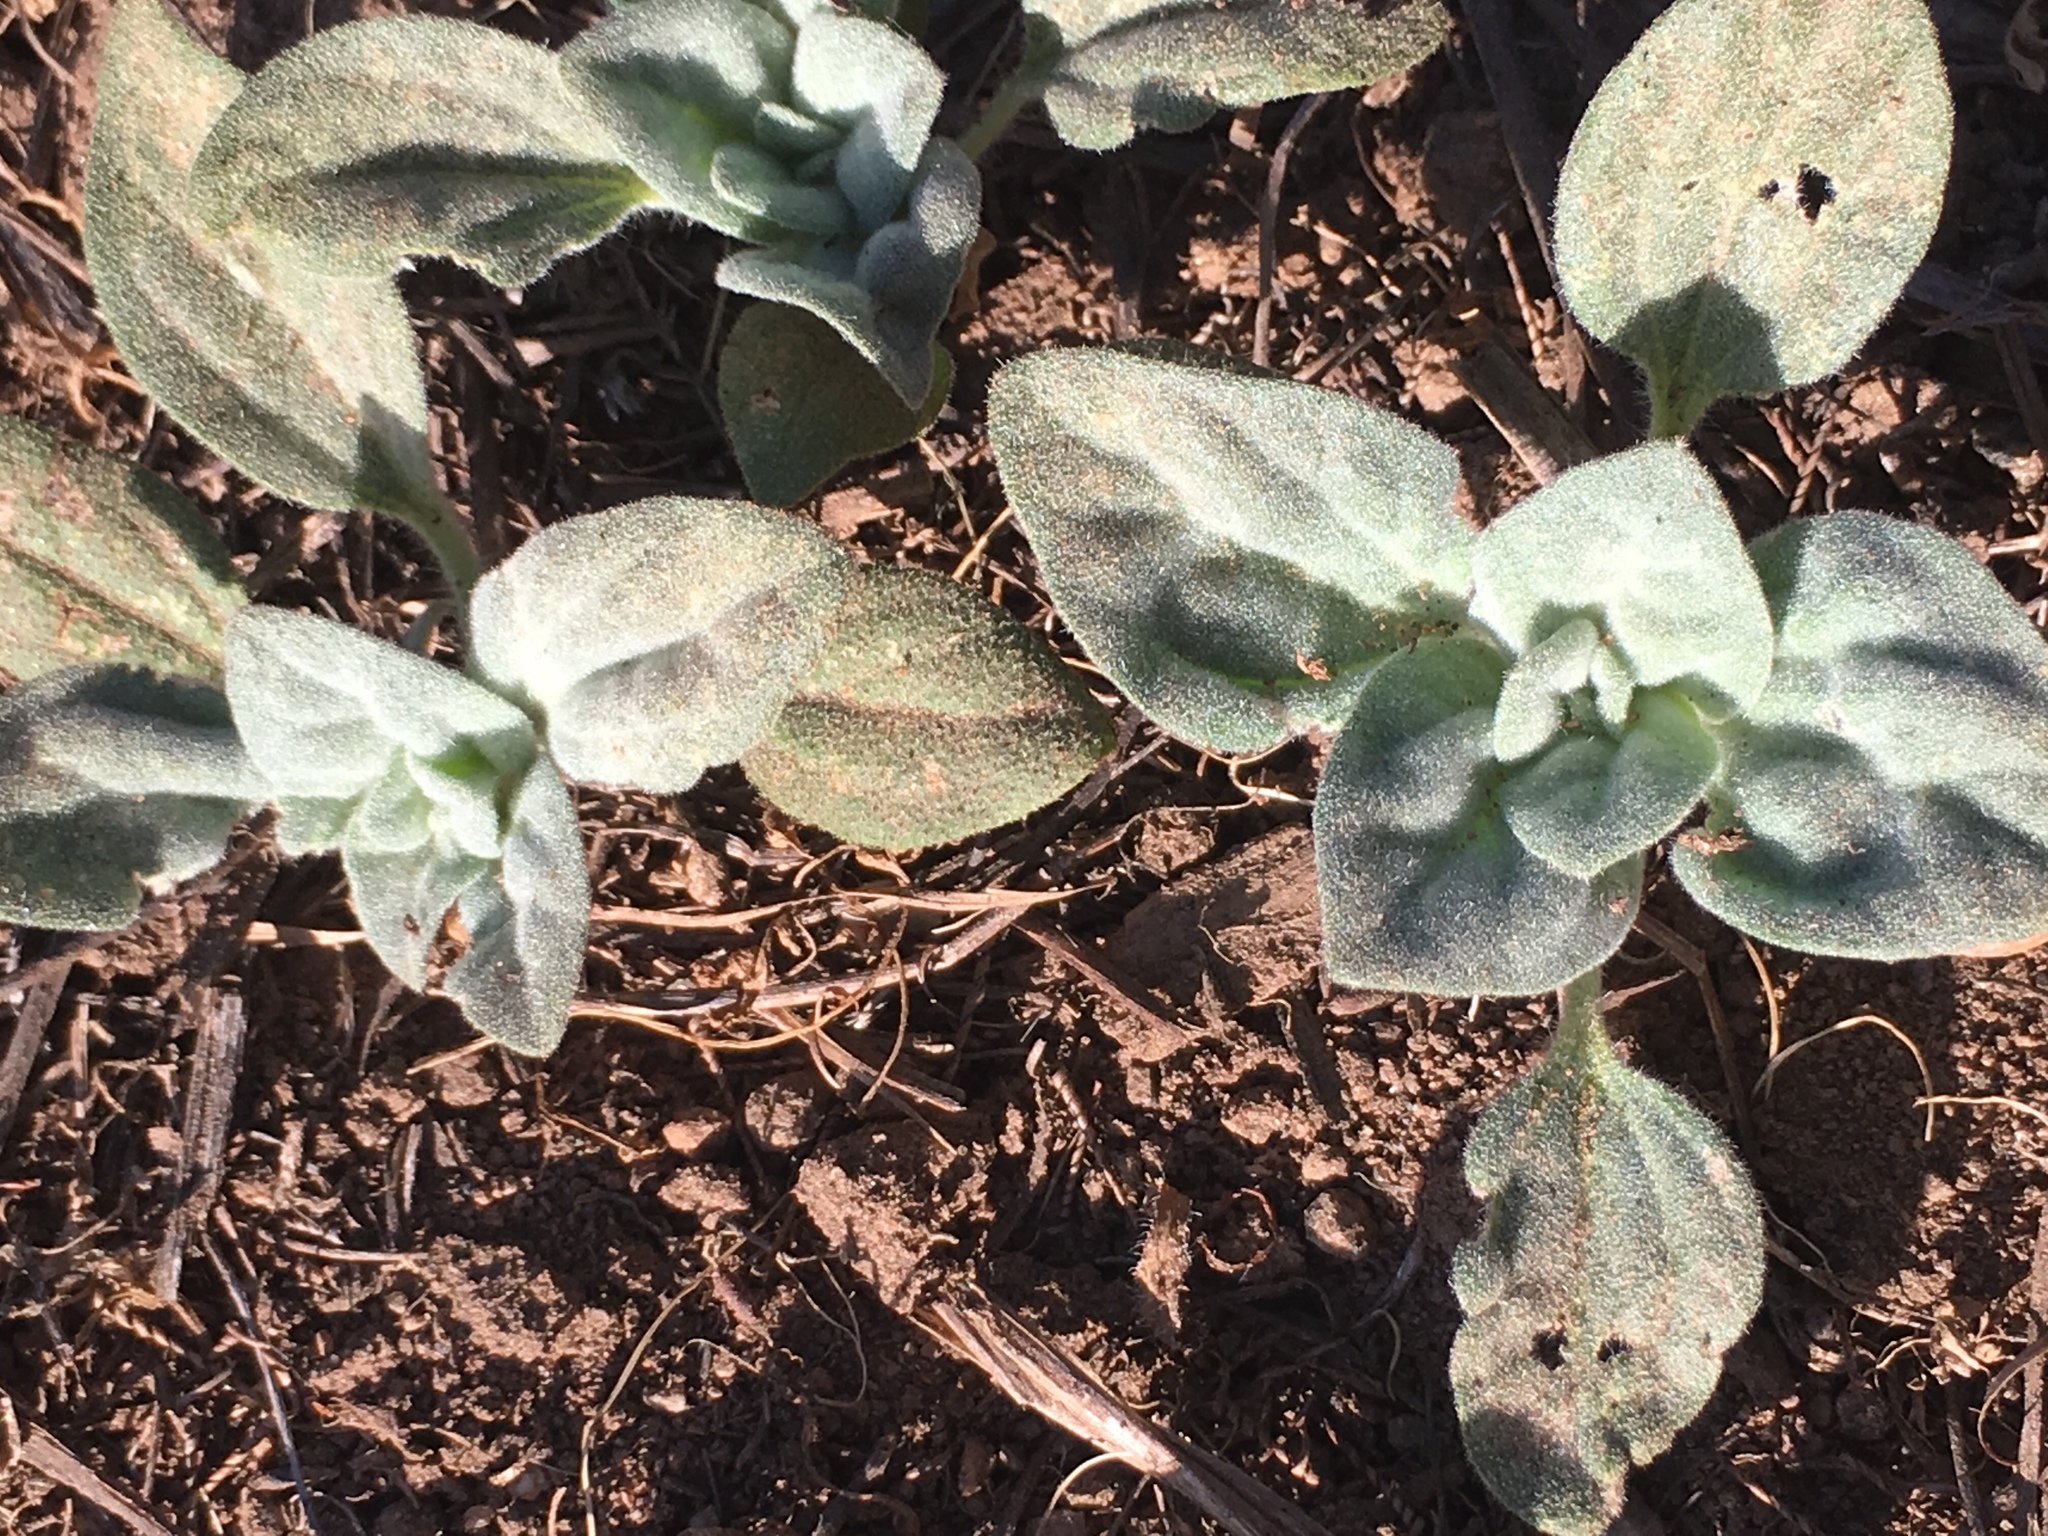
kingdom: Plantae
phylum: Tracheophyta
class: Magnoliopsida
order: Malpighiales
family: Euphorbiaceae
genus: Croton
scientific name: Croton setiger
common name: Dove weed
